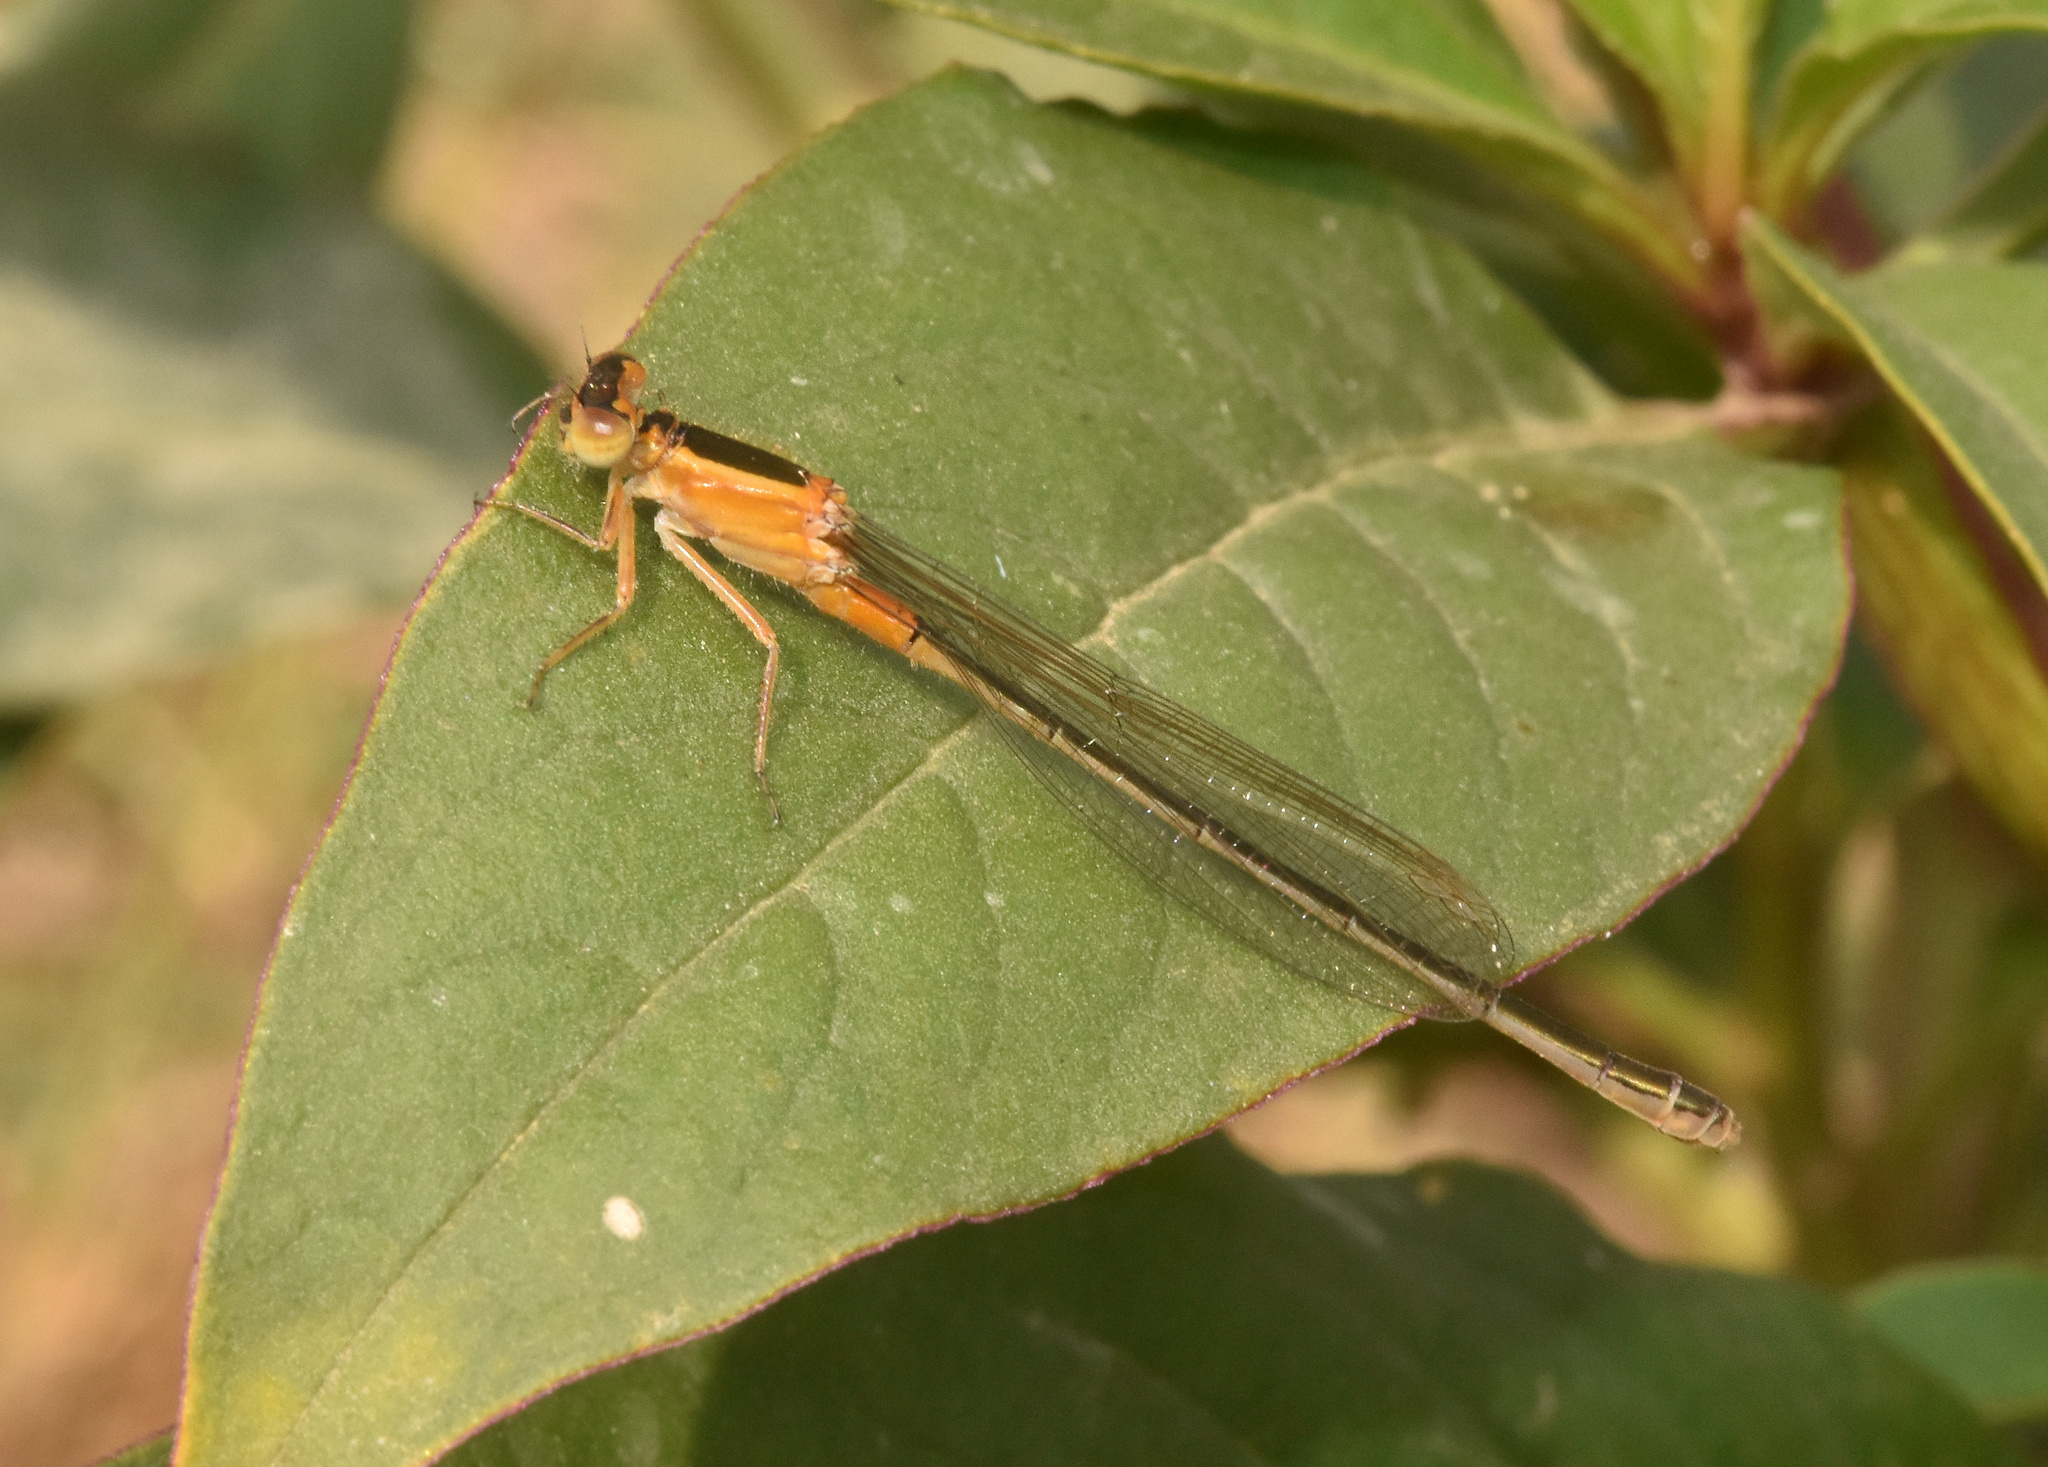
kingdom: Animalia
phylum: Arthropoda
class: Insecta
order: Odonata
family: Coenagrionidae
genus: Ischnura
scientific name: Ischnura senegalensis
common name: Tropical bluetail
